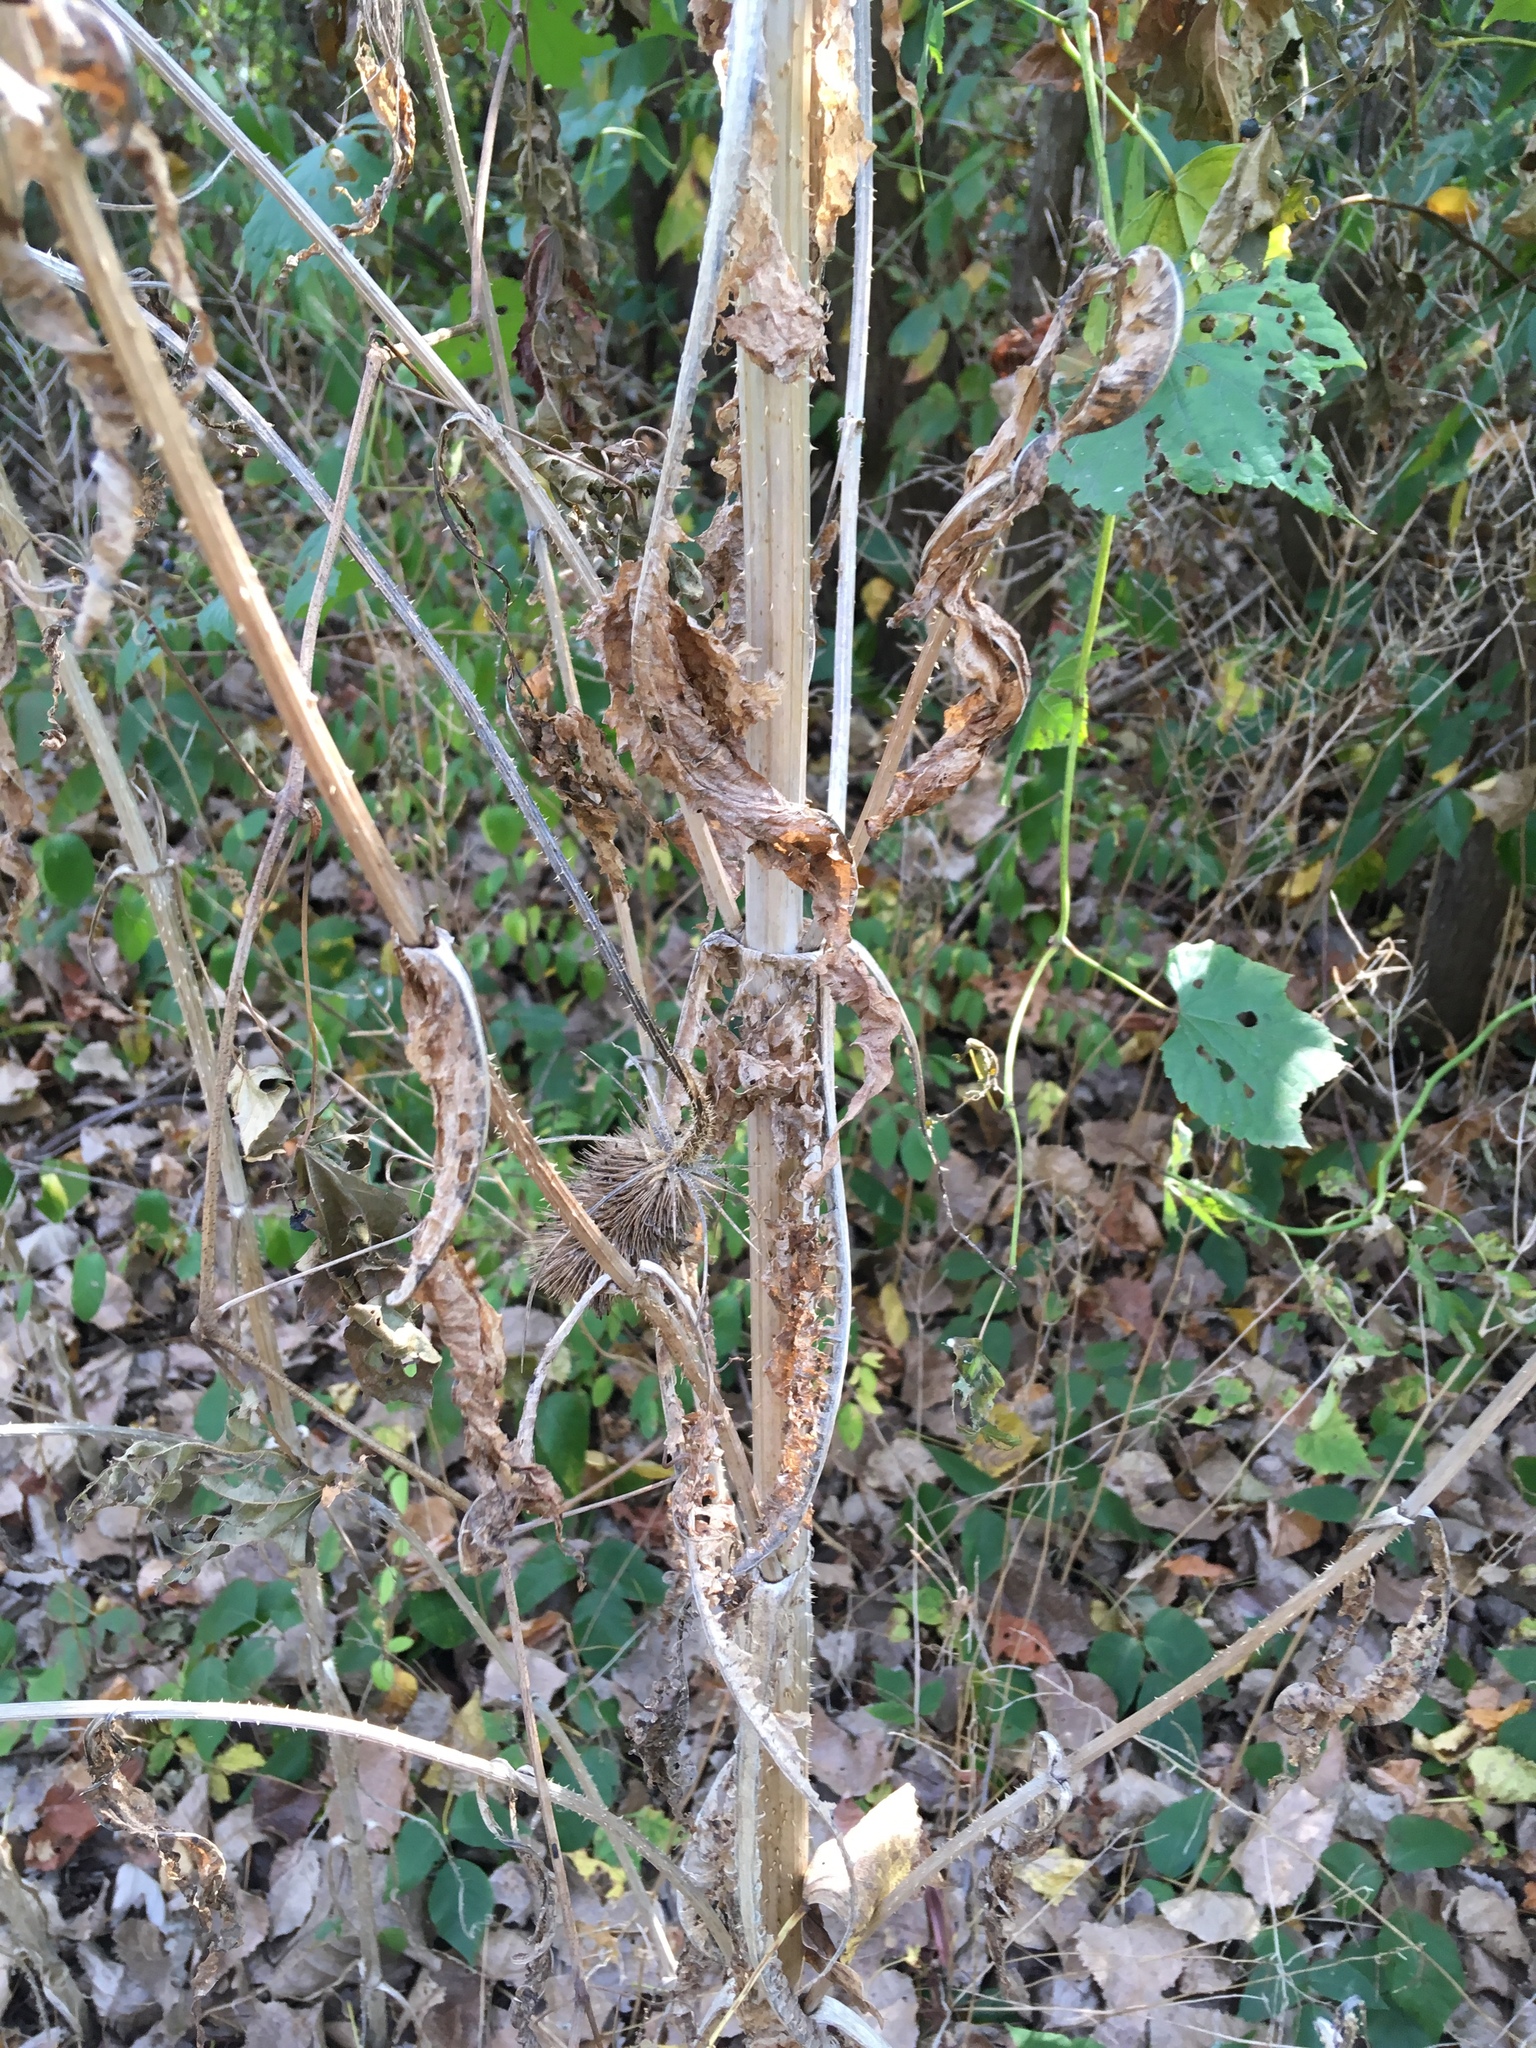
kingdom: Plantae
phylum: Tracheophyta
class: Magnoliopsida
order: Dipsacales
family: Caprifoliaceae
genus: Dipsacus
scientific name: Dipsacus fullonum
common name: Teasel
